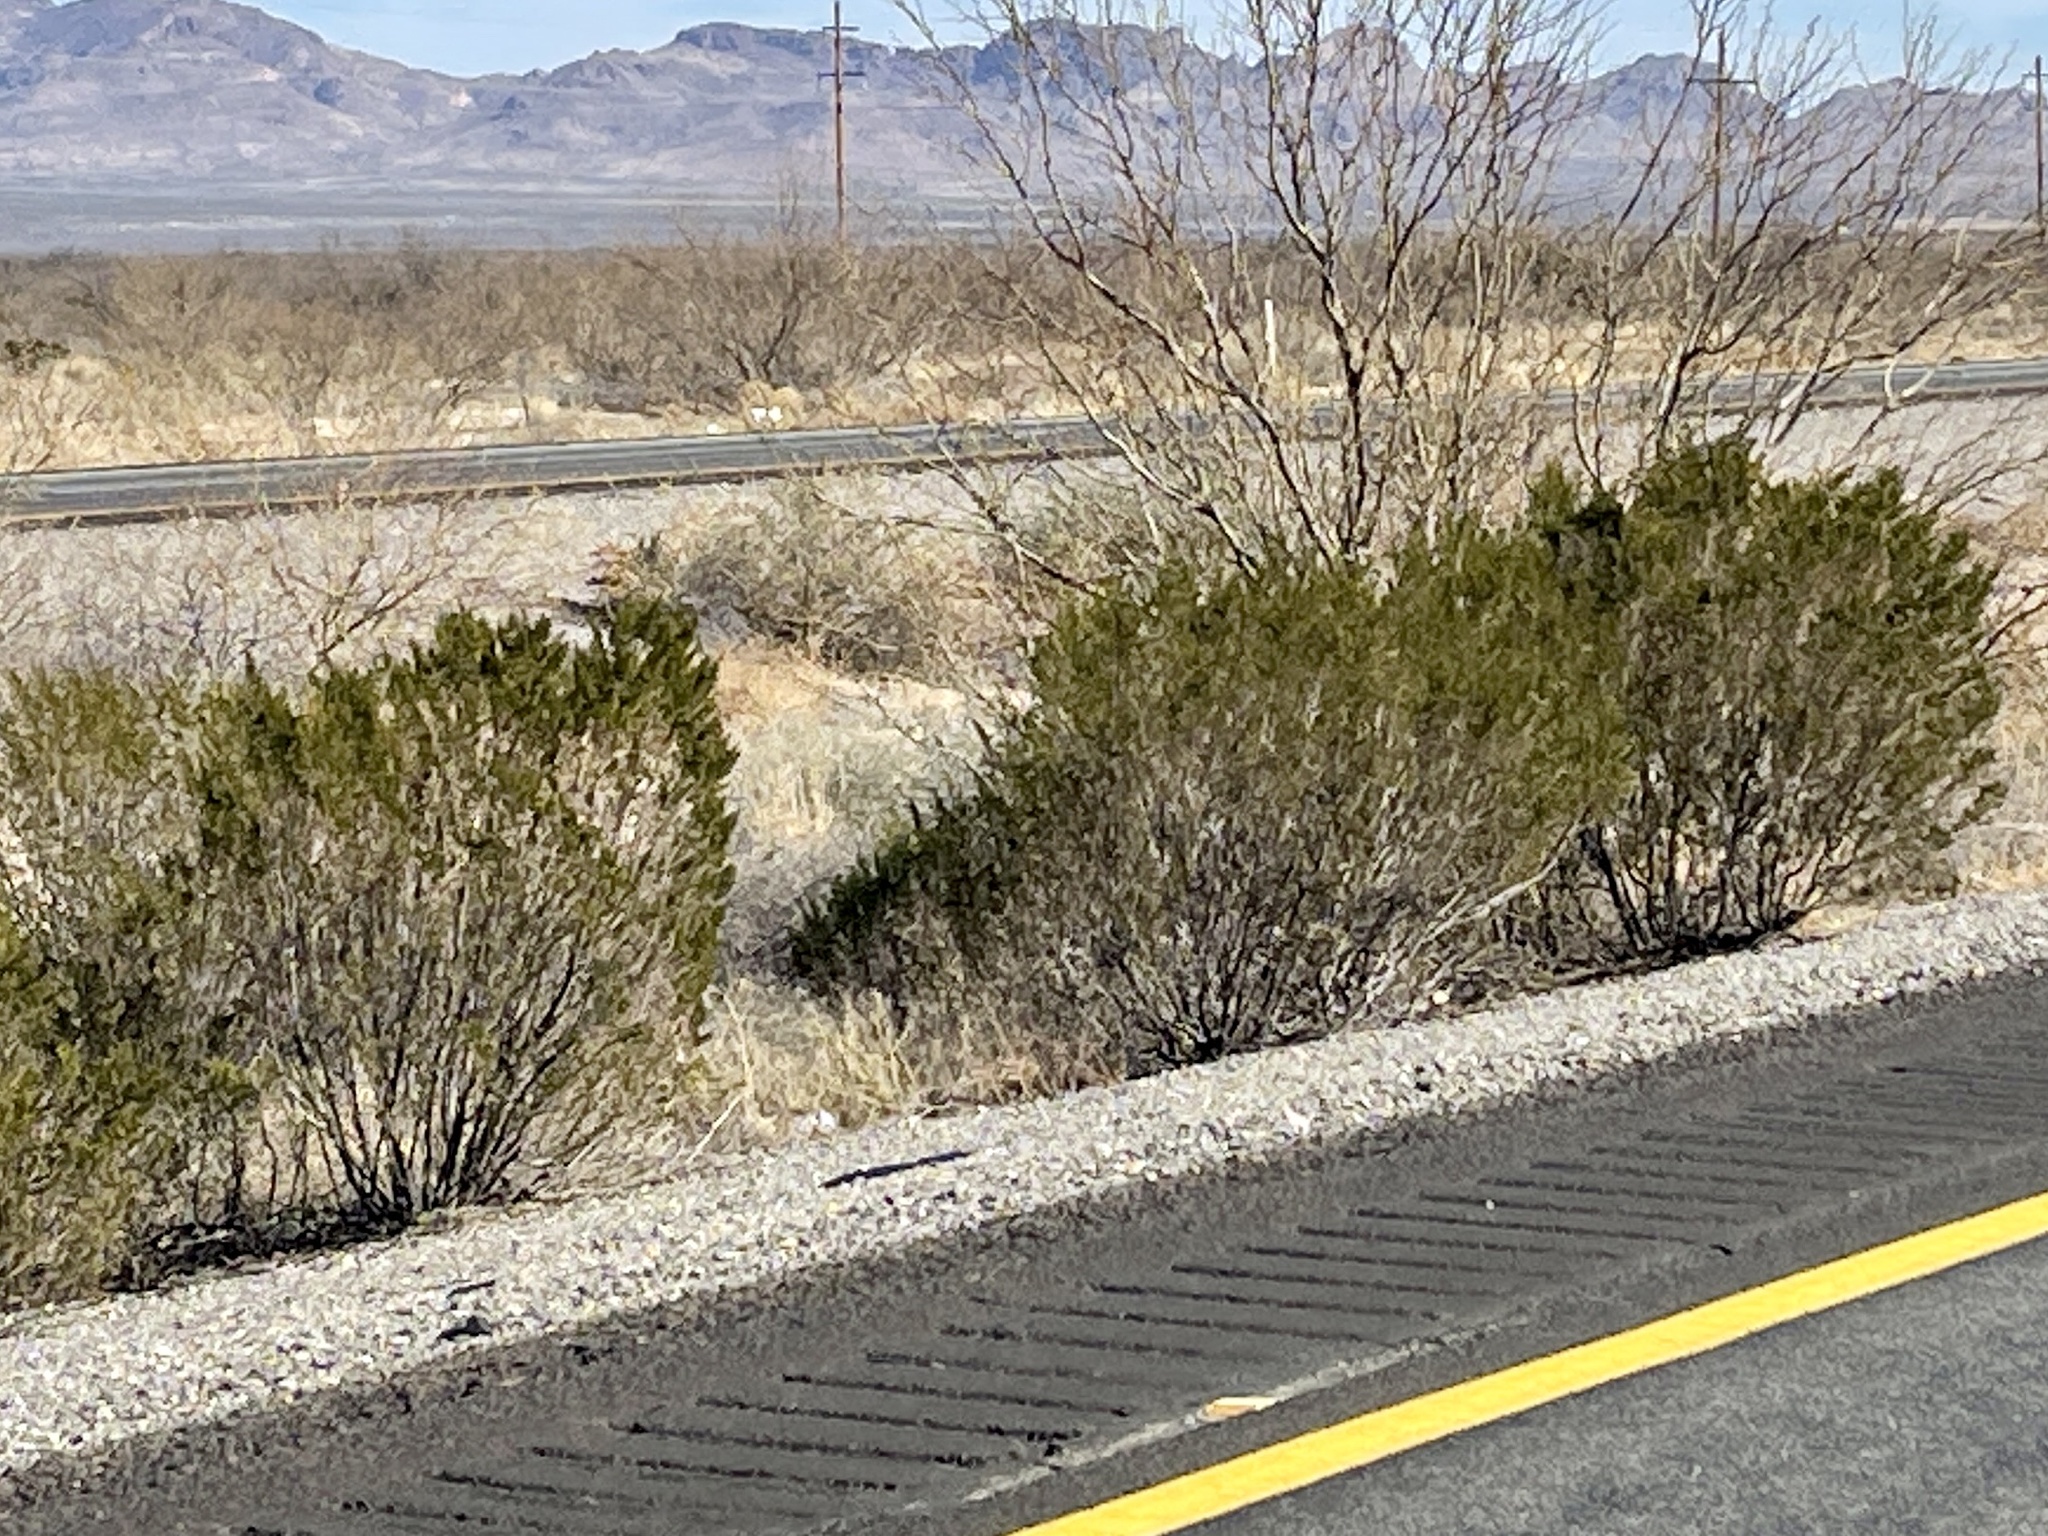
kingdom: Plantae
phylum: Tracheophyta
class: Magnoliopsida
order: Zygophyllales
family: Zygophyllaceae
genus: Larrea
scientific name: Larrea tridentata
